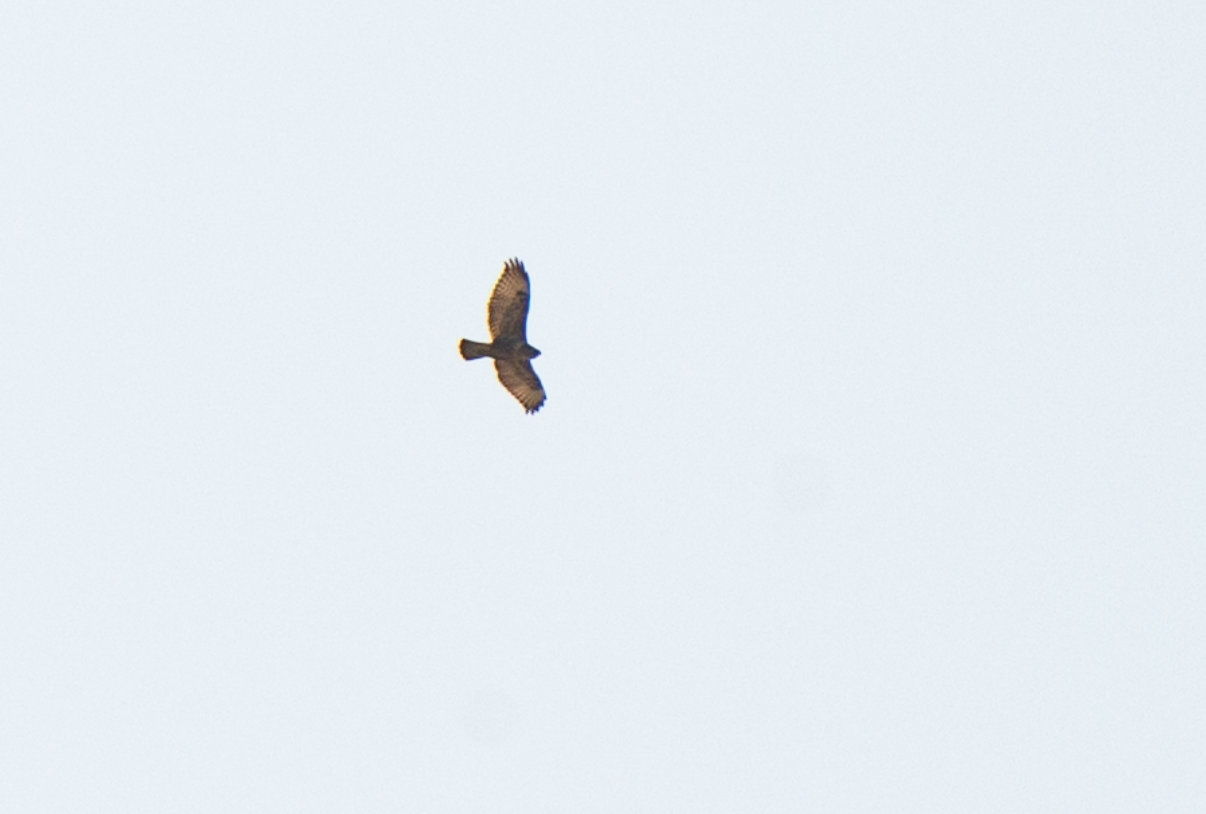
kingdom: Animalia
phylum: Chordata
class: Aves
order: Accipitriformes
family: Accipitridae
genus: Buteo
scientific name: Buteo buteo
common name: Common buzzard
